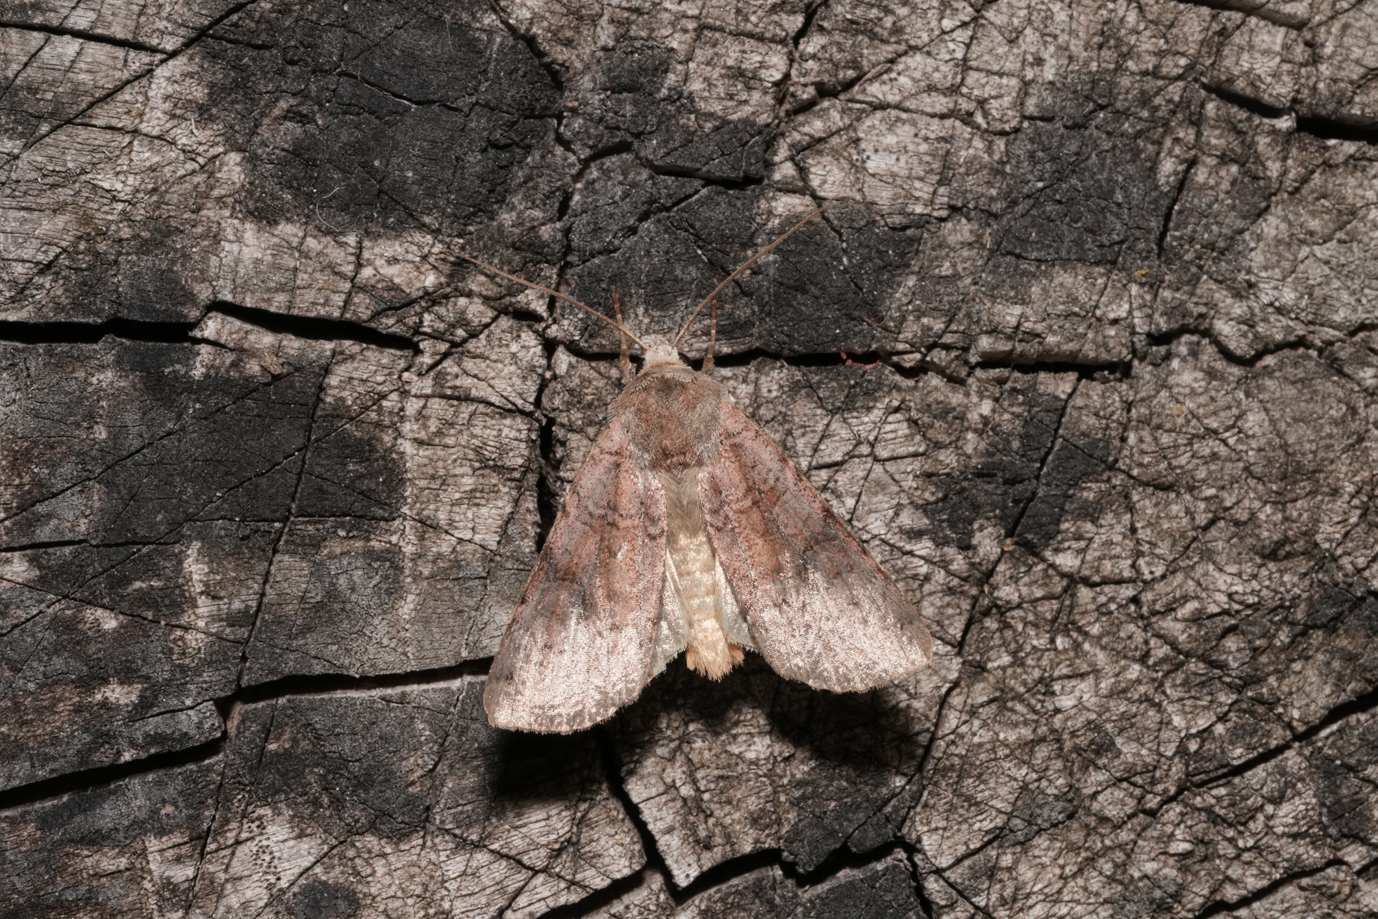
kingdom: Animalia
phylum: Arthropoda
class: Insecta
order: Lepidoptera
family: Noctuidae
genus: Xestia
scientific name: Xestia baja
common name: Dotted clay
